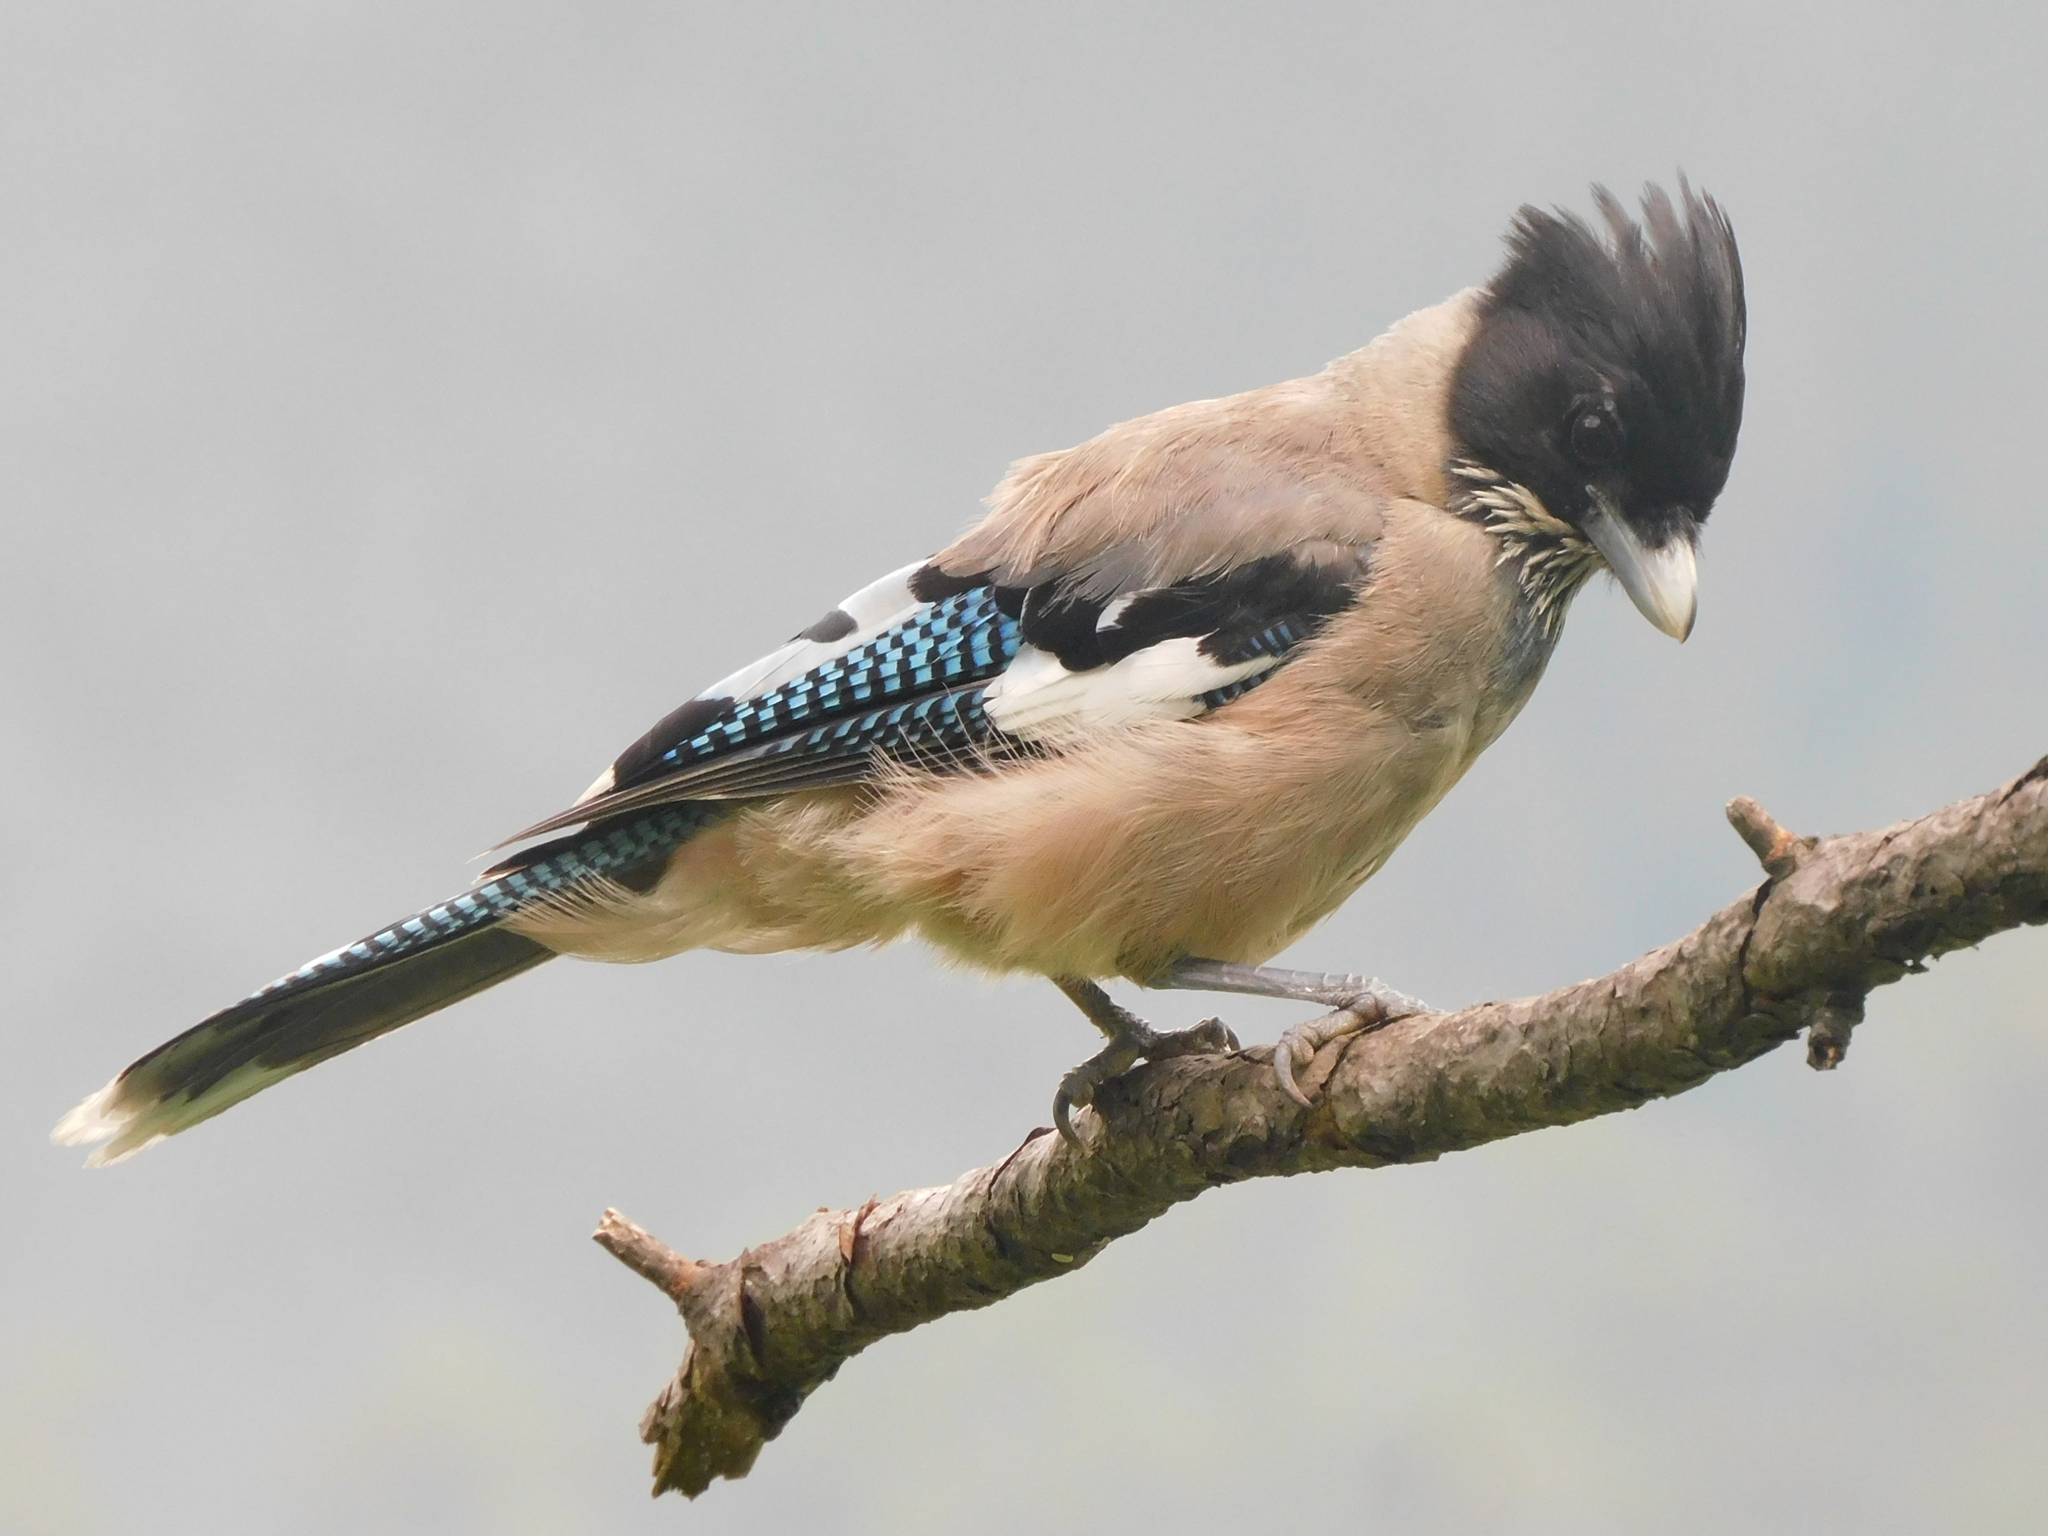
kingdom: Animalia
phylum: Chordata
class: Aves
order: Passeriformes
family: Corvidae
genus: Garrulus
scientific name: Garrulus lanceolatus
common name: Black-headed jay
